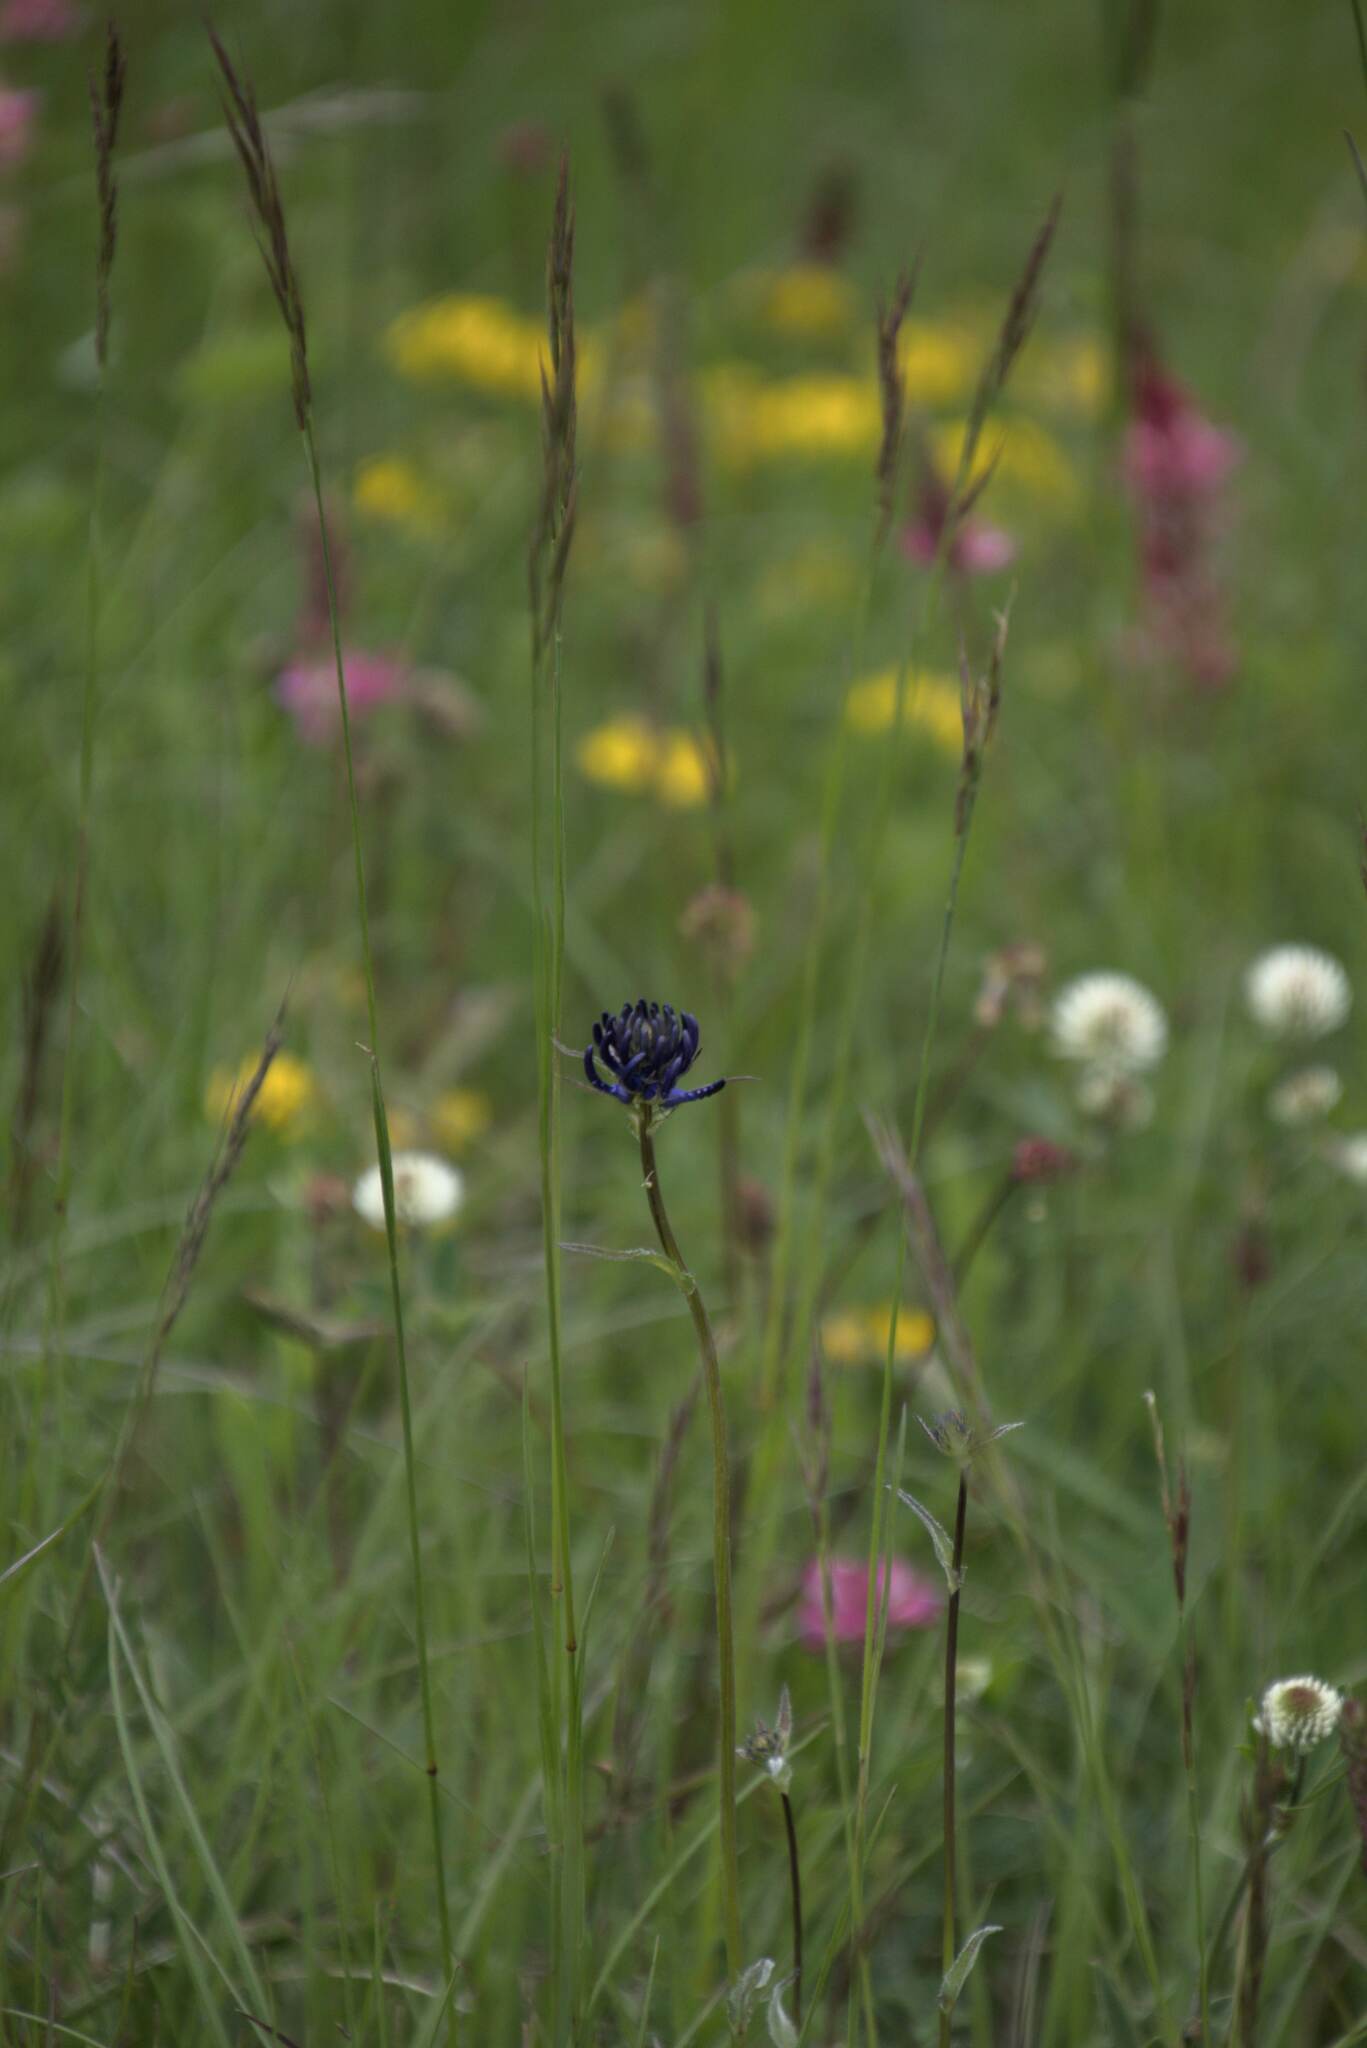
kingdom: Plantae
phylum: Tracheophyta
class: Magnoliopsida
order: Asterales
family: Campanulaceae
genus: Phyteuma
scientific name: Phyteuma orbiculare
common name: Round-headed rampion
